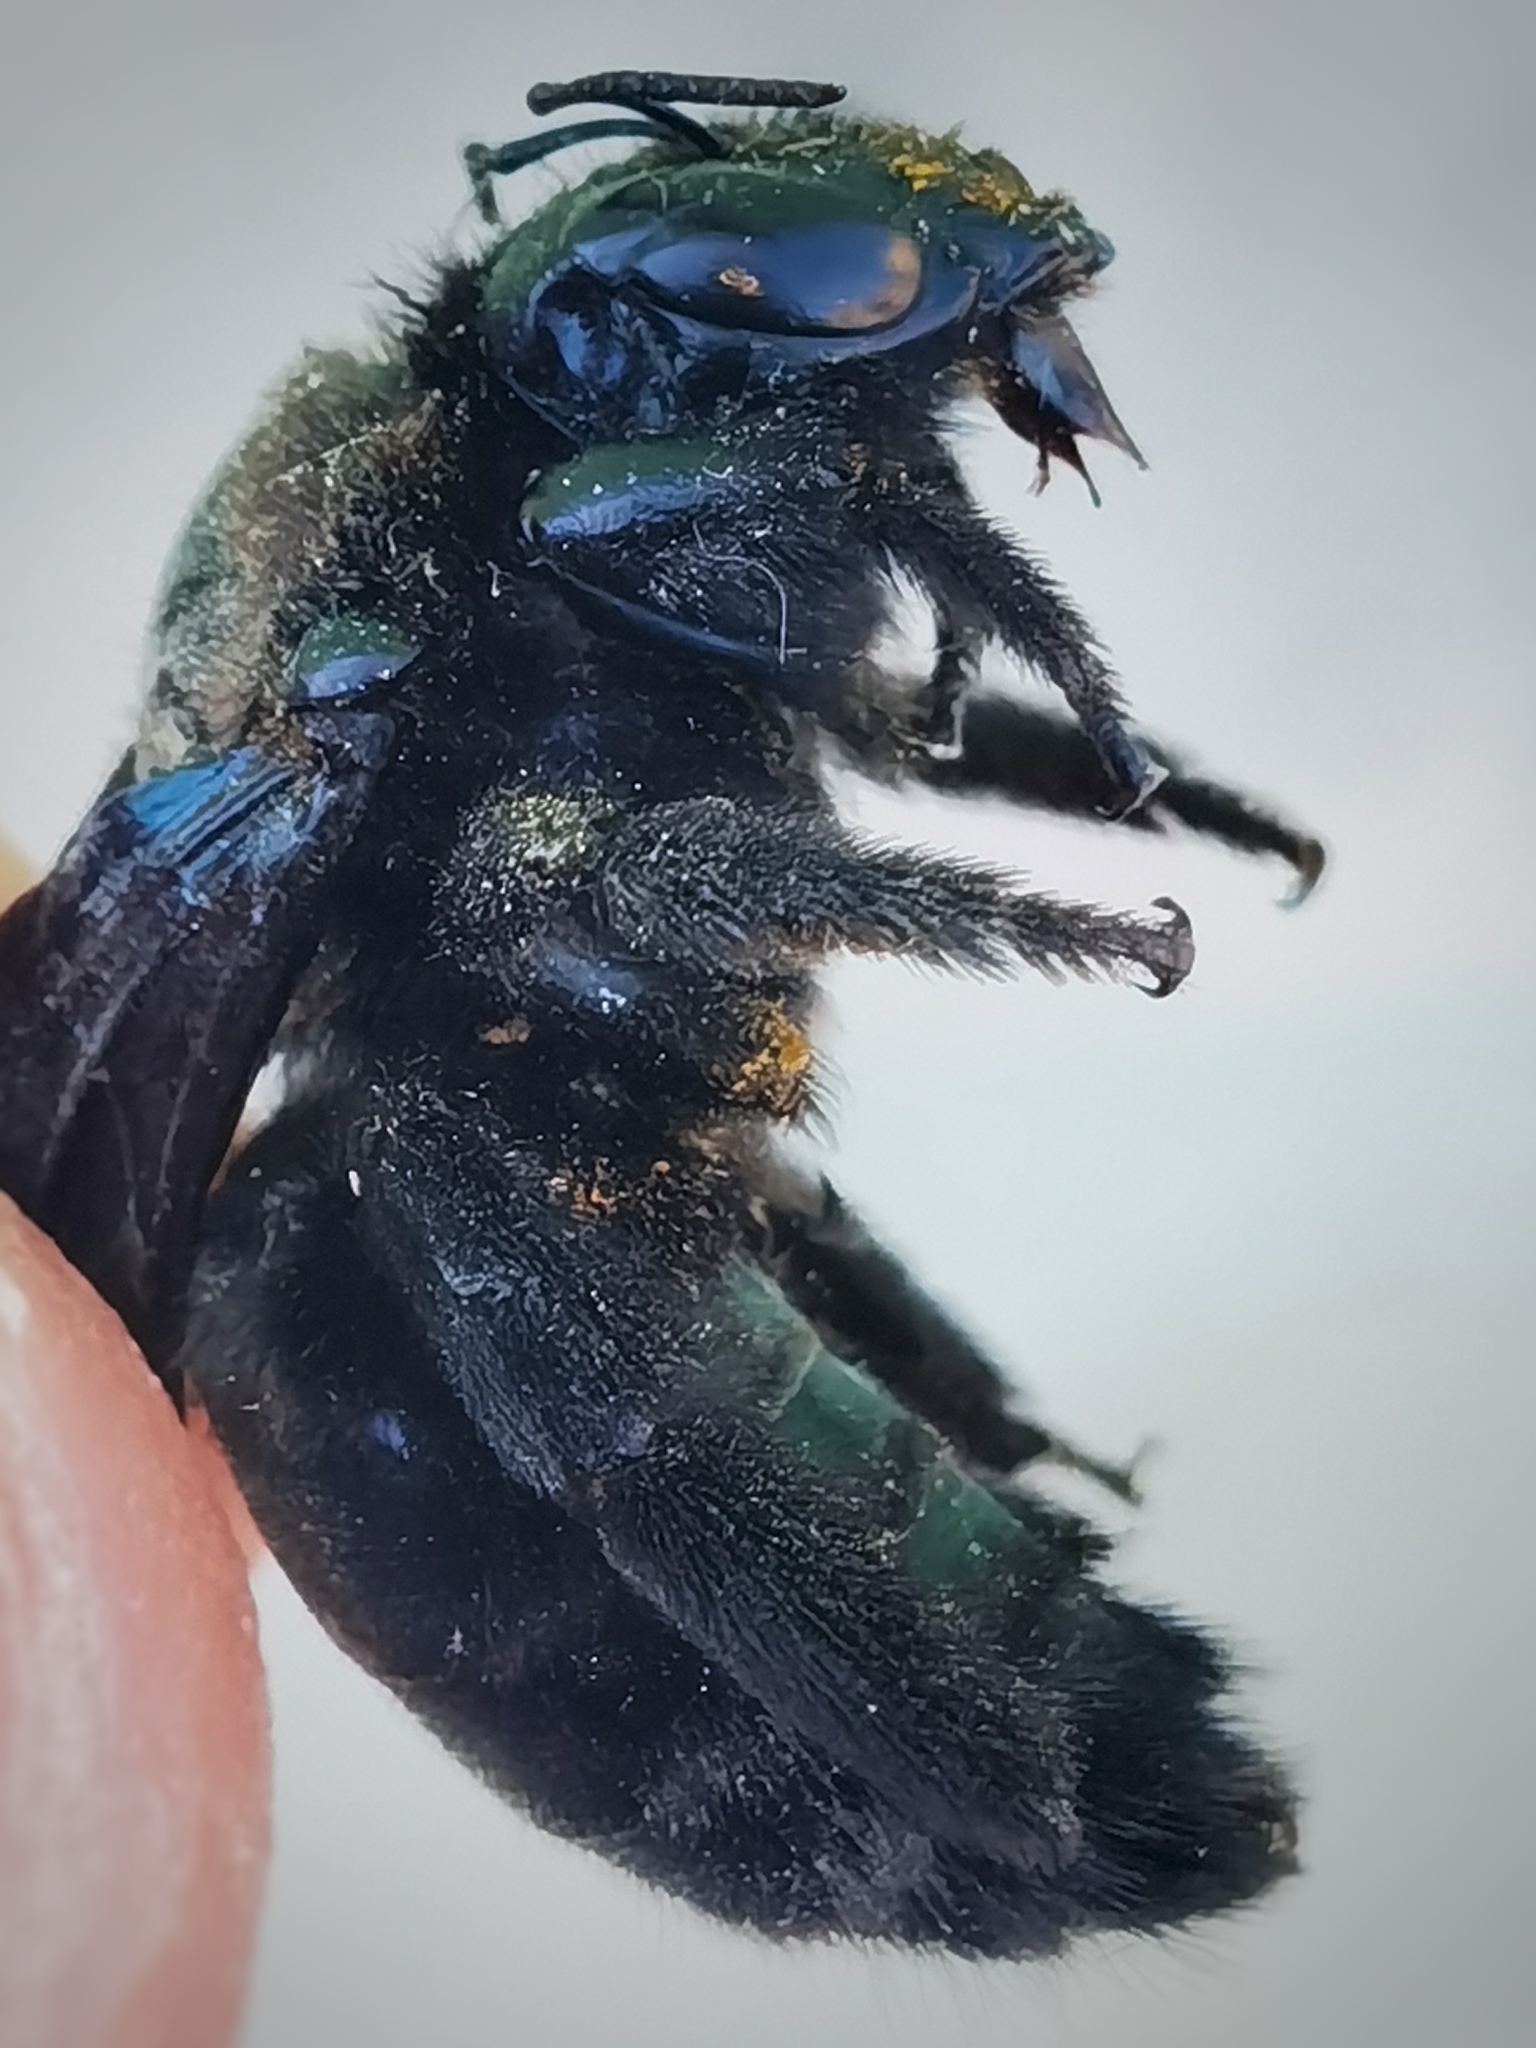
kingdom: Animalia
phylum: Arthropoda
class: Insecta
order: Hymenoptera
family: Apidae
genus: Xylocopa
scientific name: Xylocopa griswoldi
